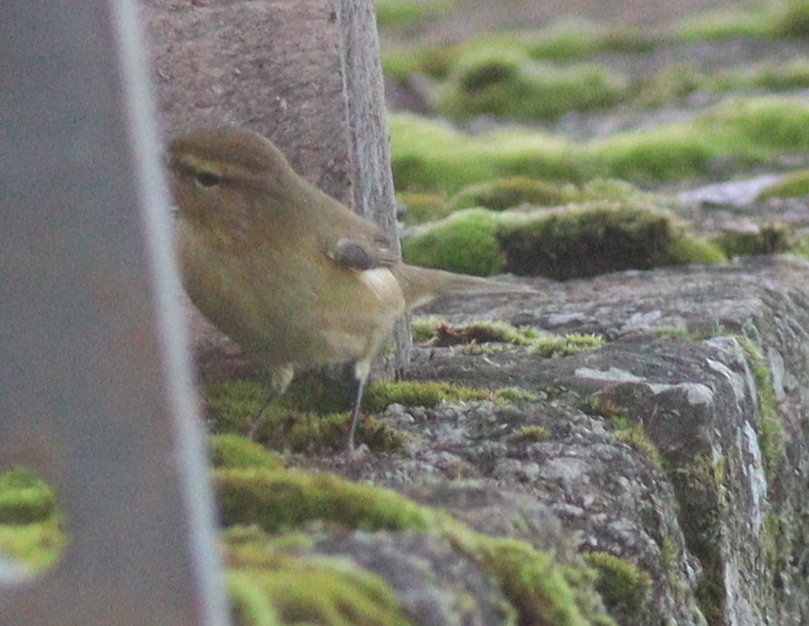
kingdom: Animalia
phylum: Chordata
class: Aves
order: Passeriformes
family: Phylloscopidae
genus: Phylloscopus
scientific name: Phylloscopus collybita
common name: Common chiffchaff
